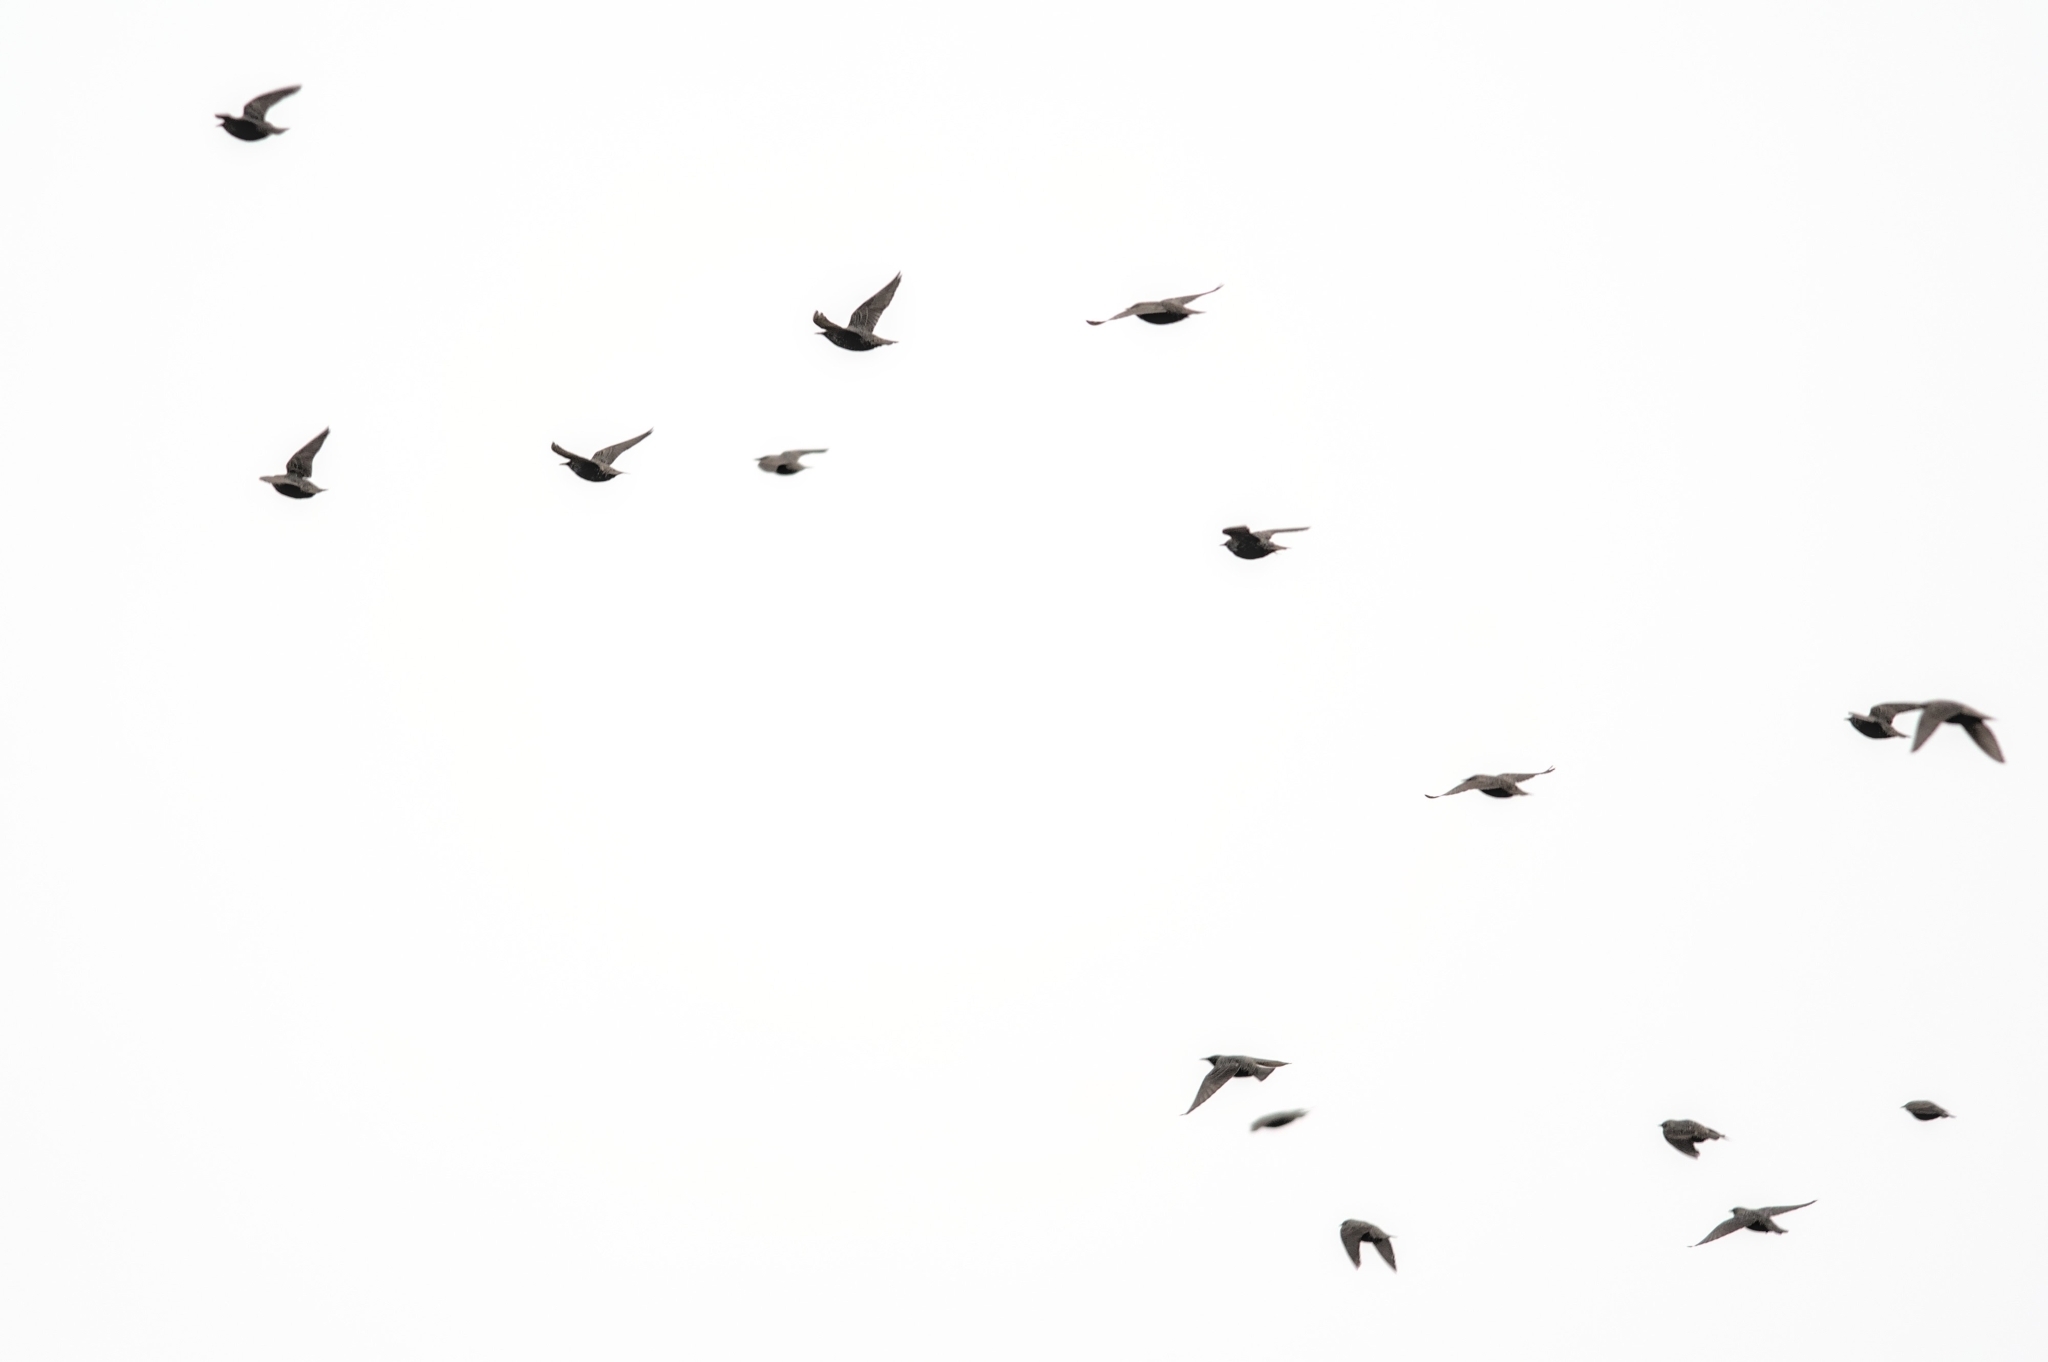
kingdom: Animalia
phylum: Chordata
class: Aves
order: Passeriformes
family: Sturnidae
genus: Sturnus
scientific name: Sturnus vulgaris
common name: Common starling
